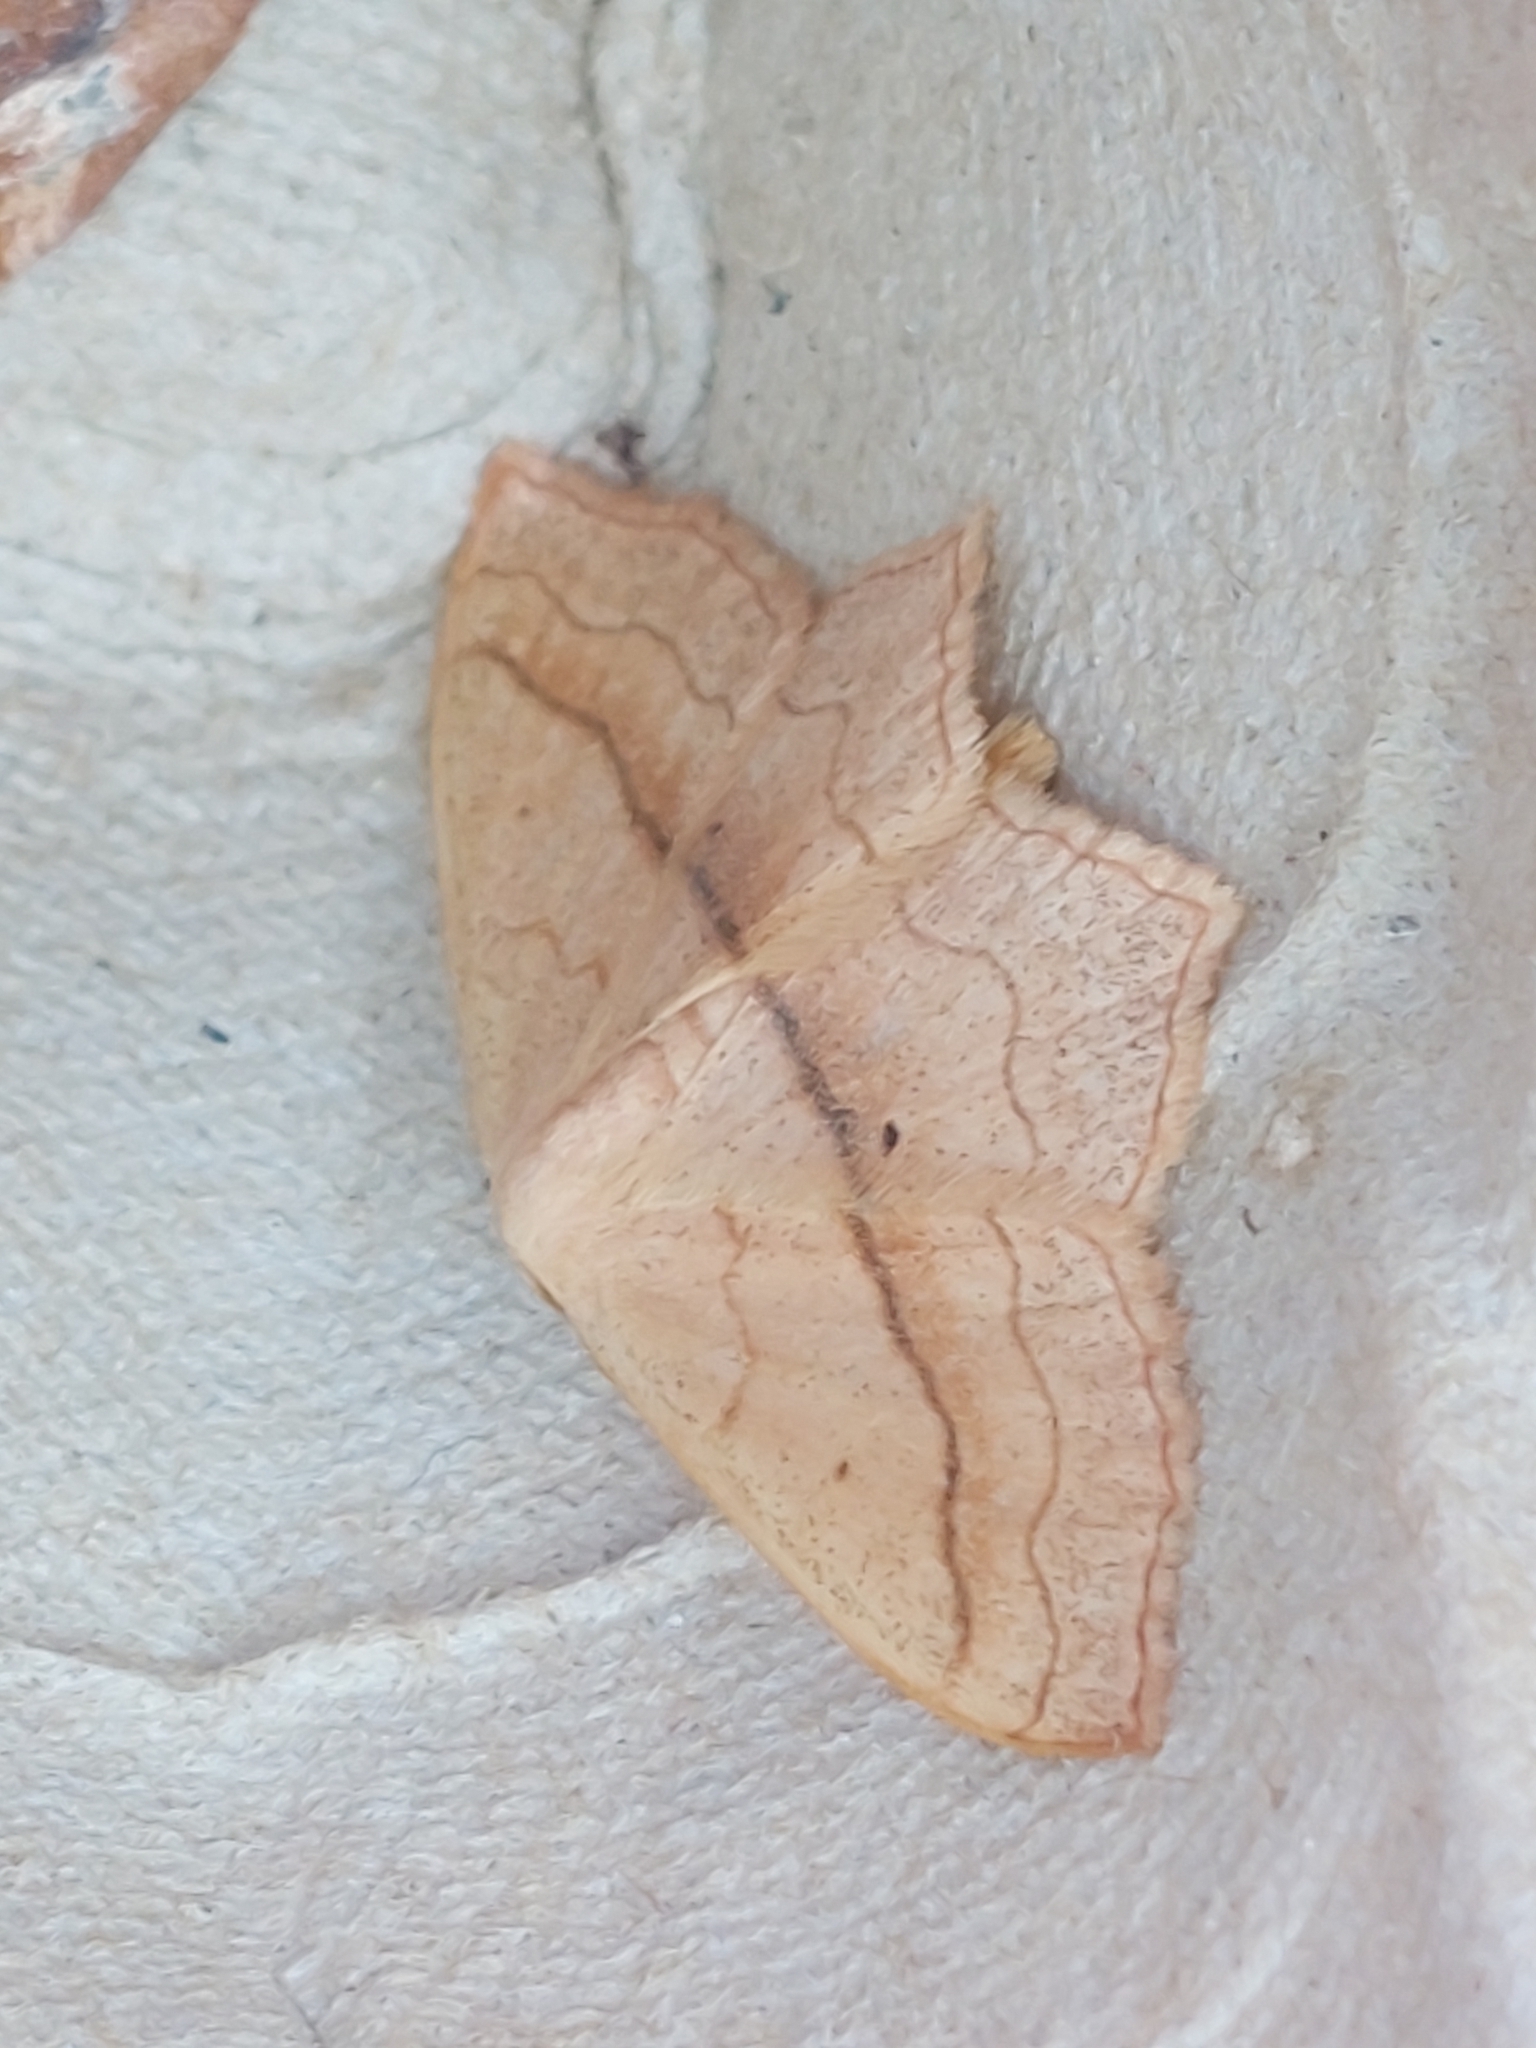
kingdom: Animalia
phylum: Arthropoda
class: Insecta
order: Lepidoptera
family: Geometridae
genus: Scopula
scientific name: Scopula imitaria
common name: Small blood-vein
